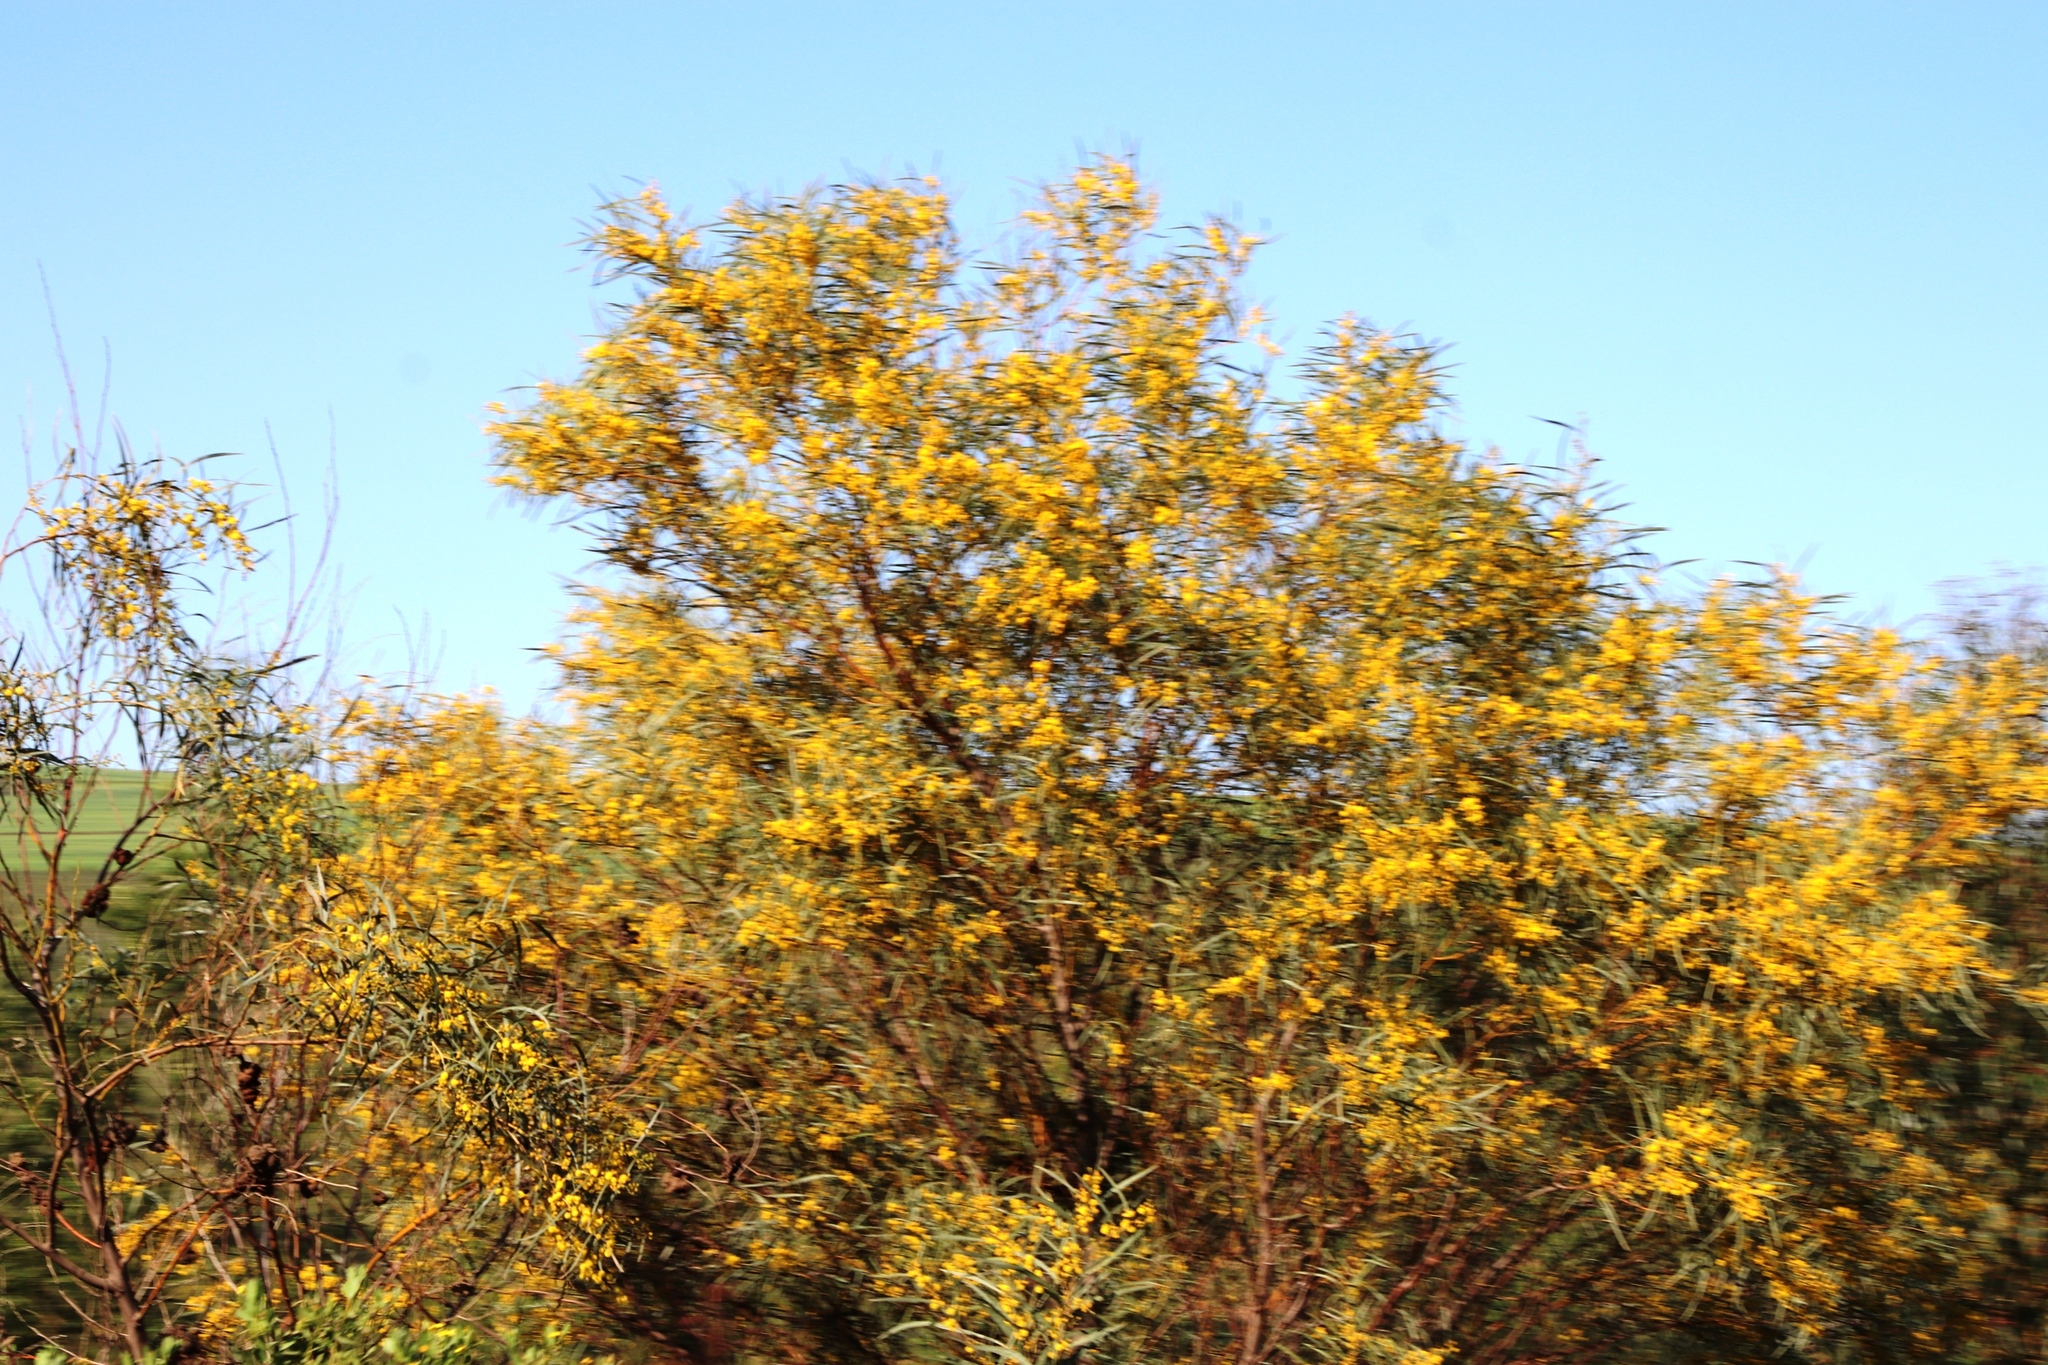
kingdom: Plantae
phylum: Tracheophyta
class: Magnoliopsida
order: Fabales
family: Fabaceae
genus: Acacia
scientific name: Acacia saligna
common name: Orange wattle
